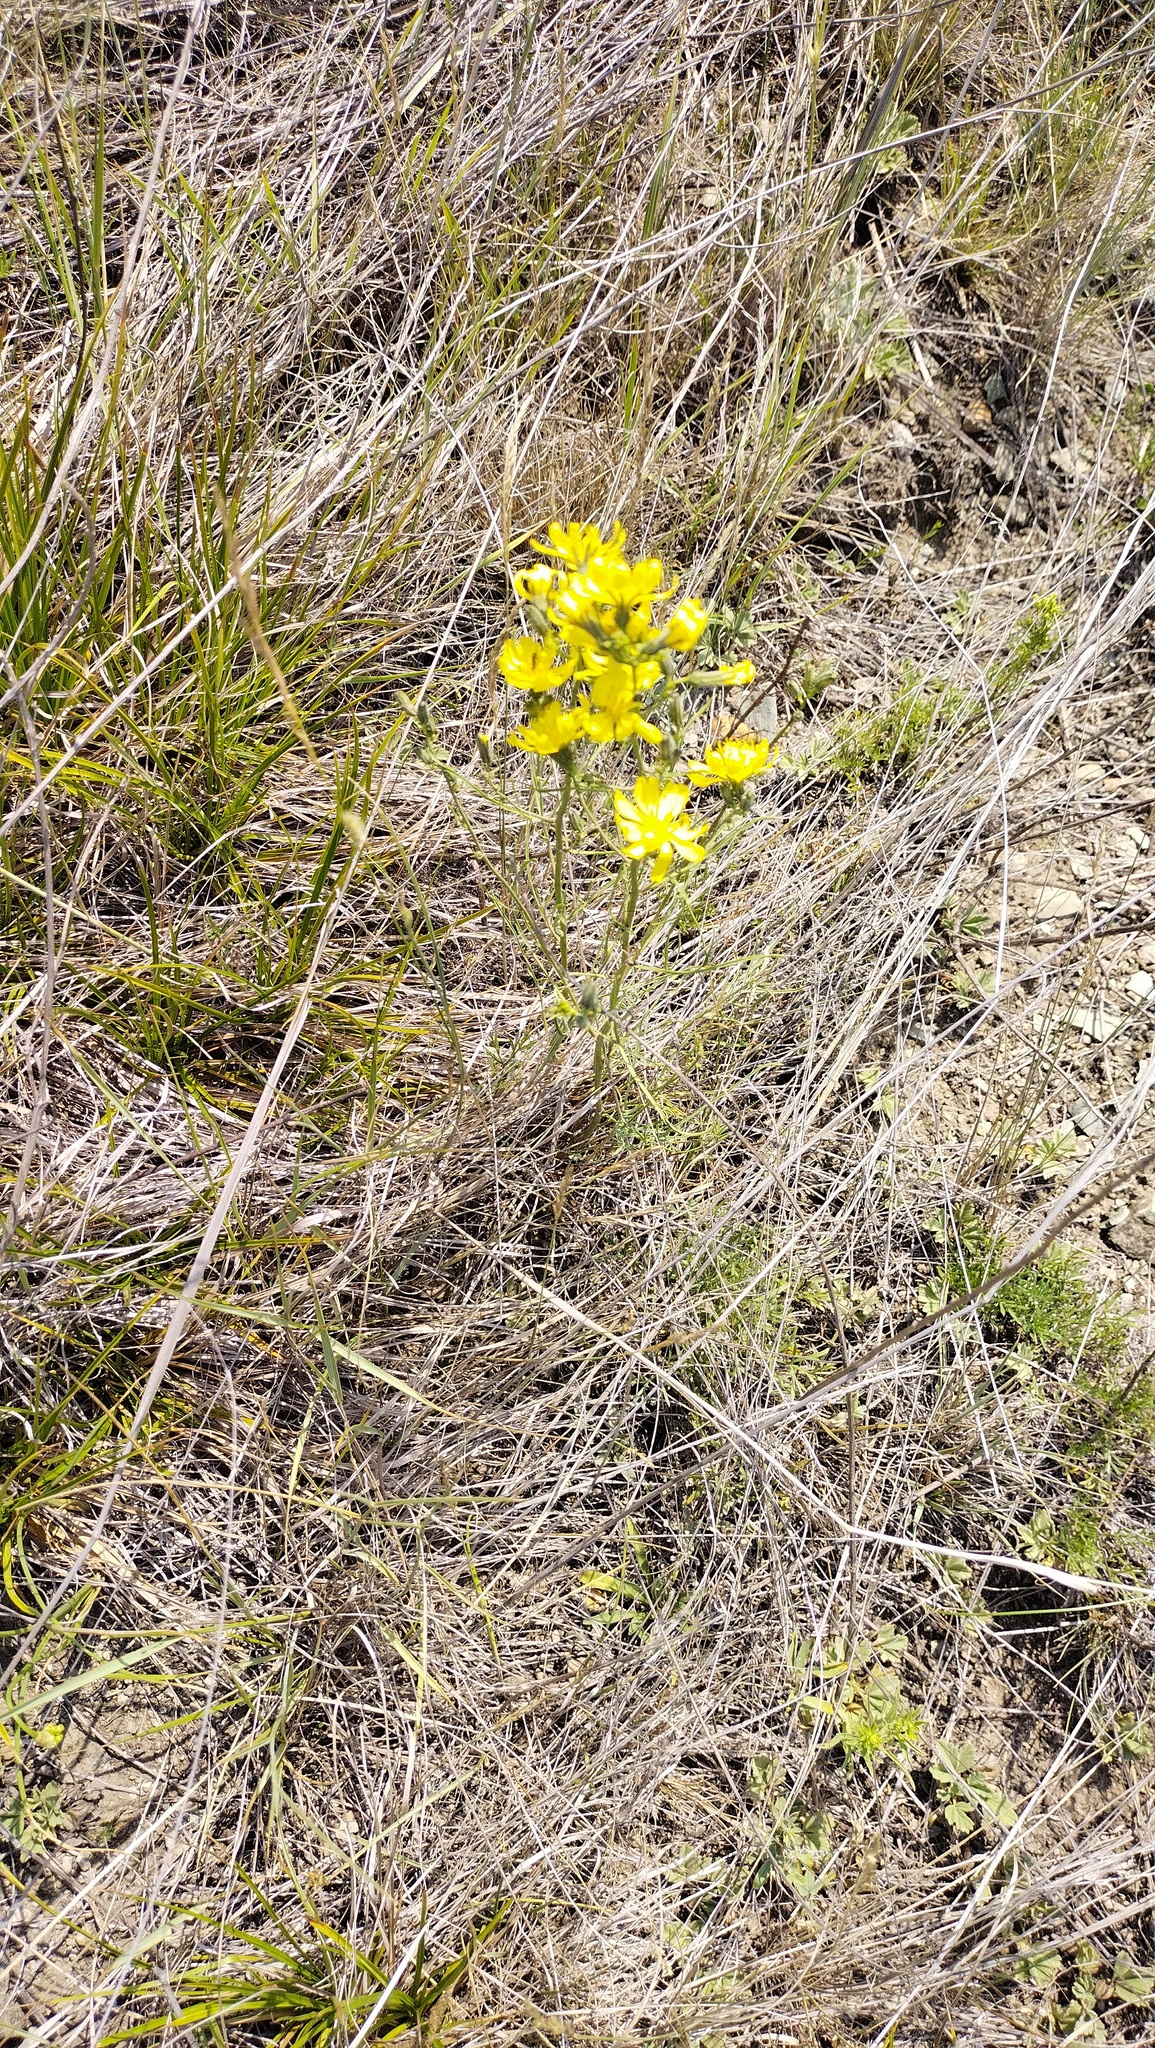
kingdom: Plantae
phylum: Tracheophyta
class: Magnoliopsida
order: Asterales
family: Asteraceae
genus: Crepidiastrum
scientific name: Crepidiastrum tenuifolium
